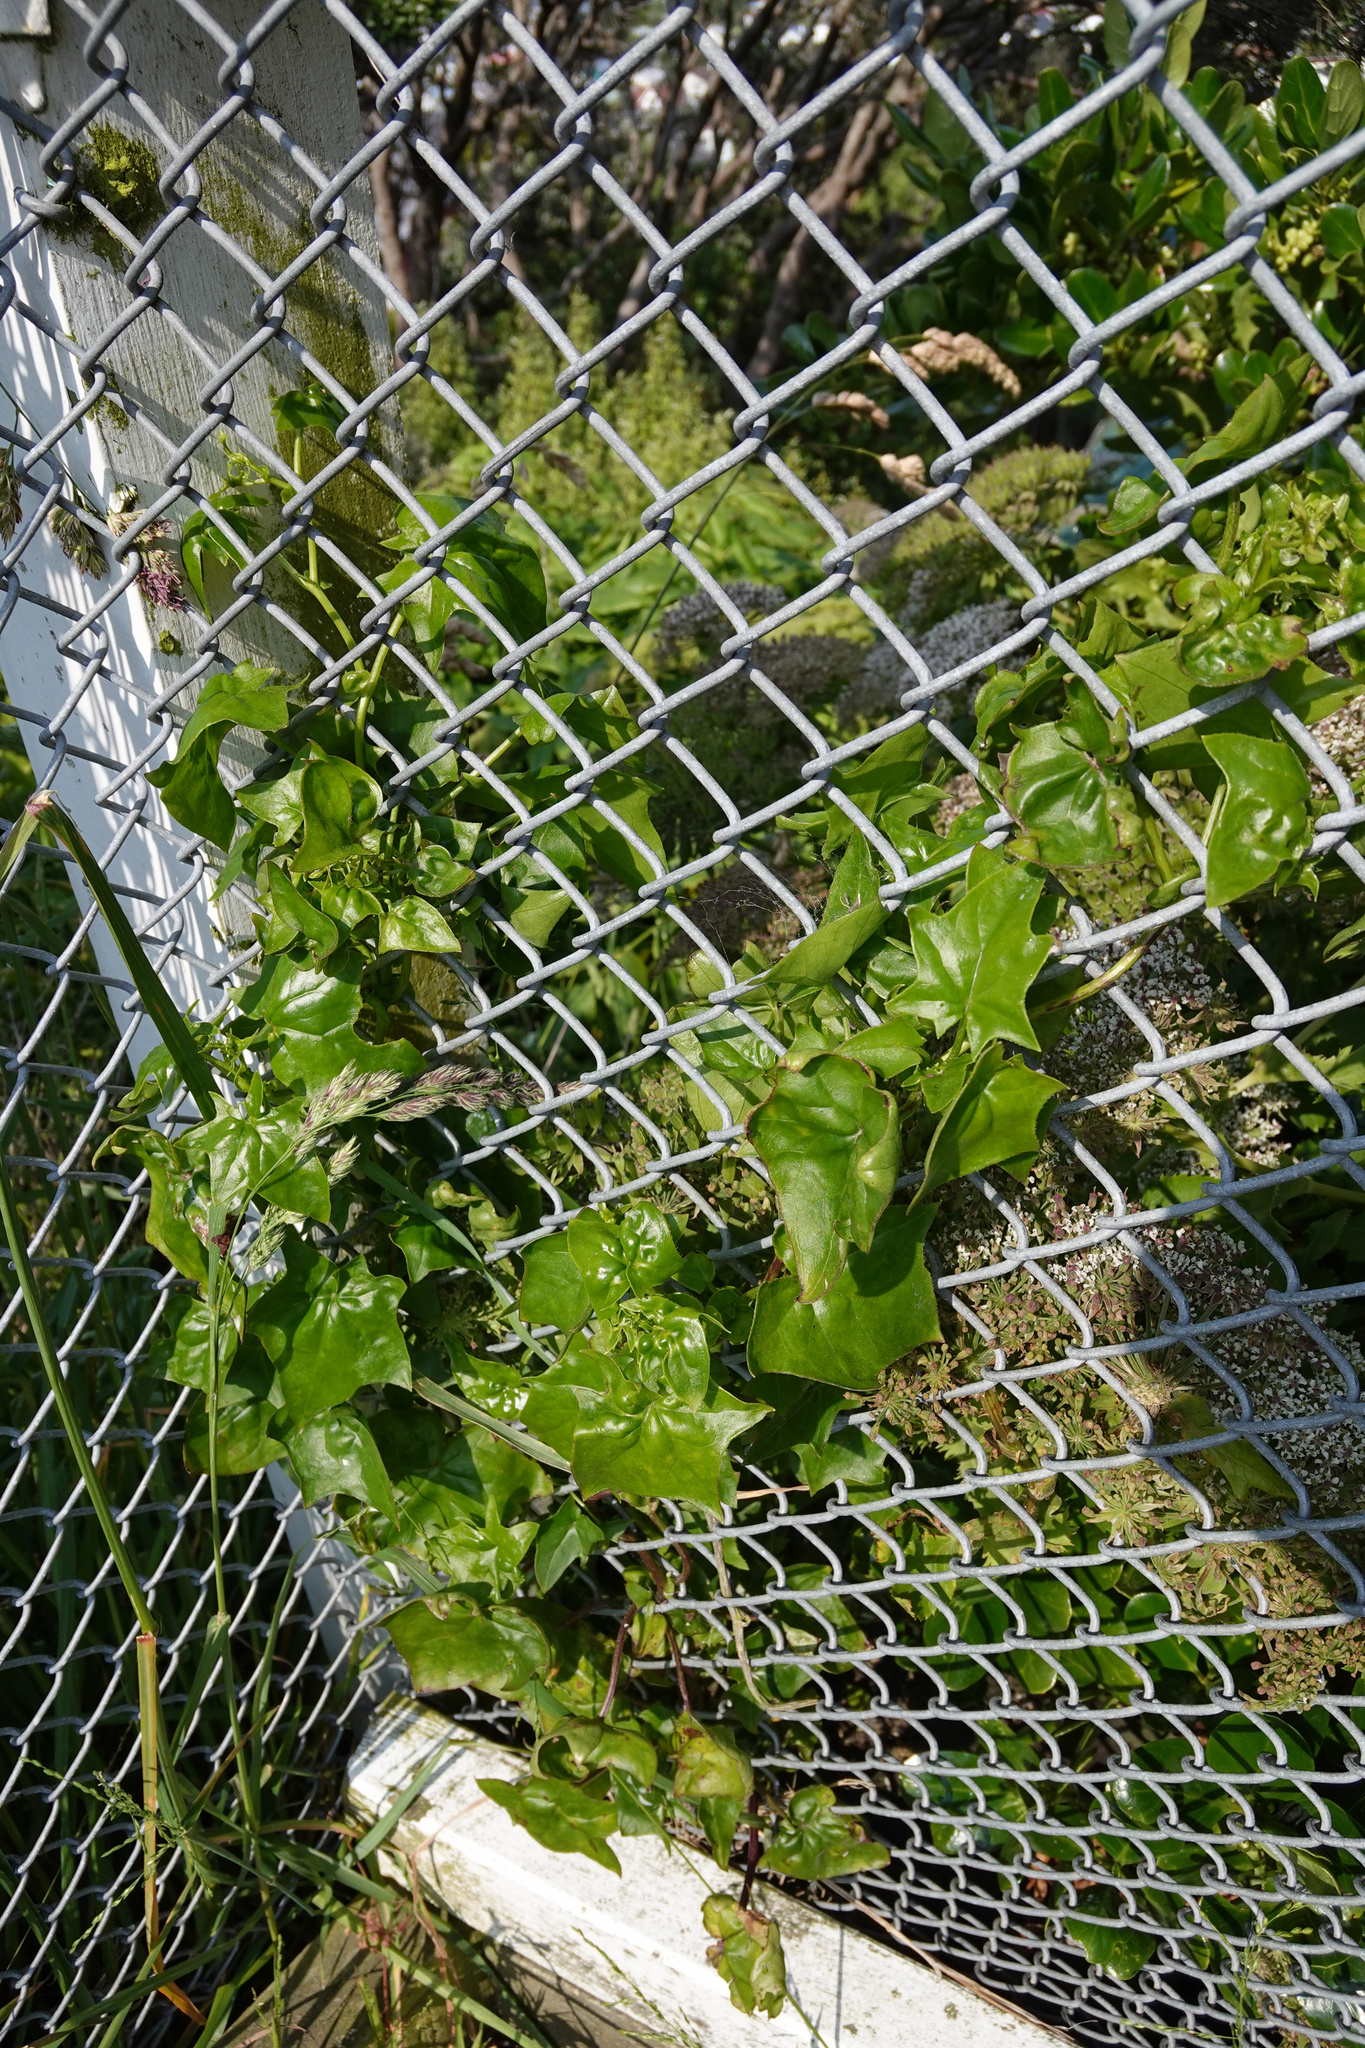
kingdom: Plantae
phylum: Tracheophyta
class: Magnoliopsida
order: Asterales
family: Asteraceae
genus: Delairea
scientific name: Delairea odorata
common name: Cape-ivy
